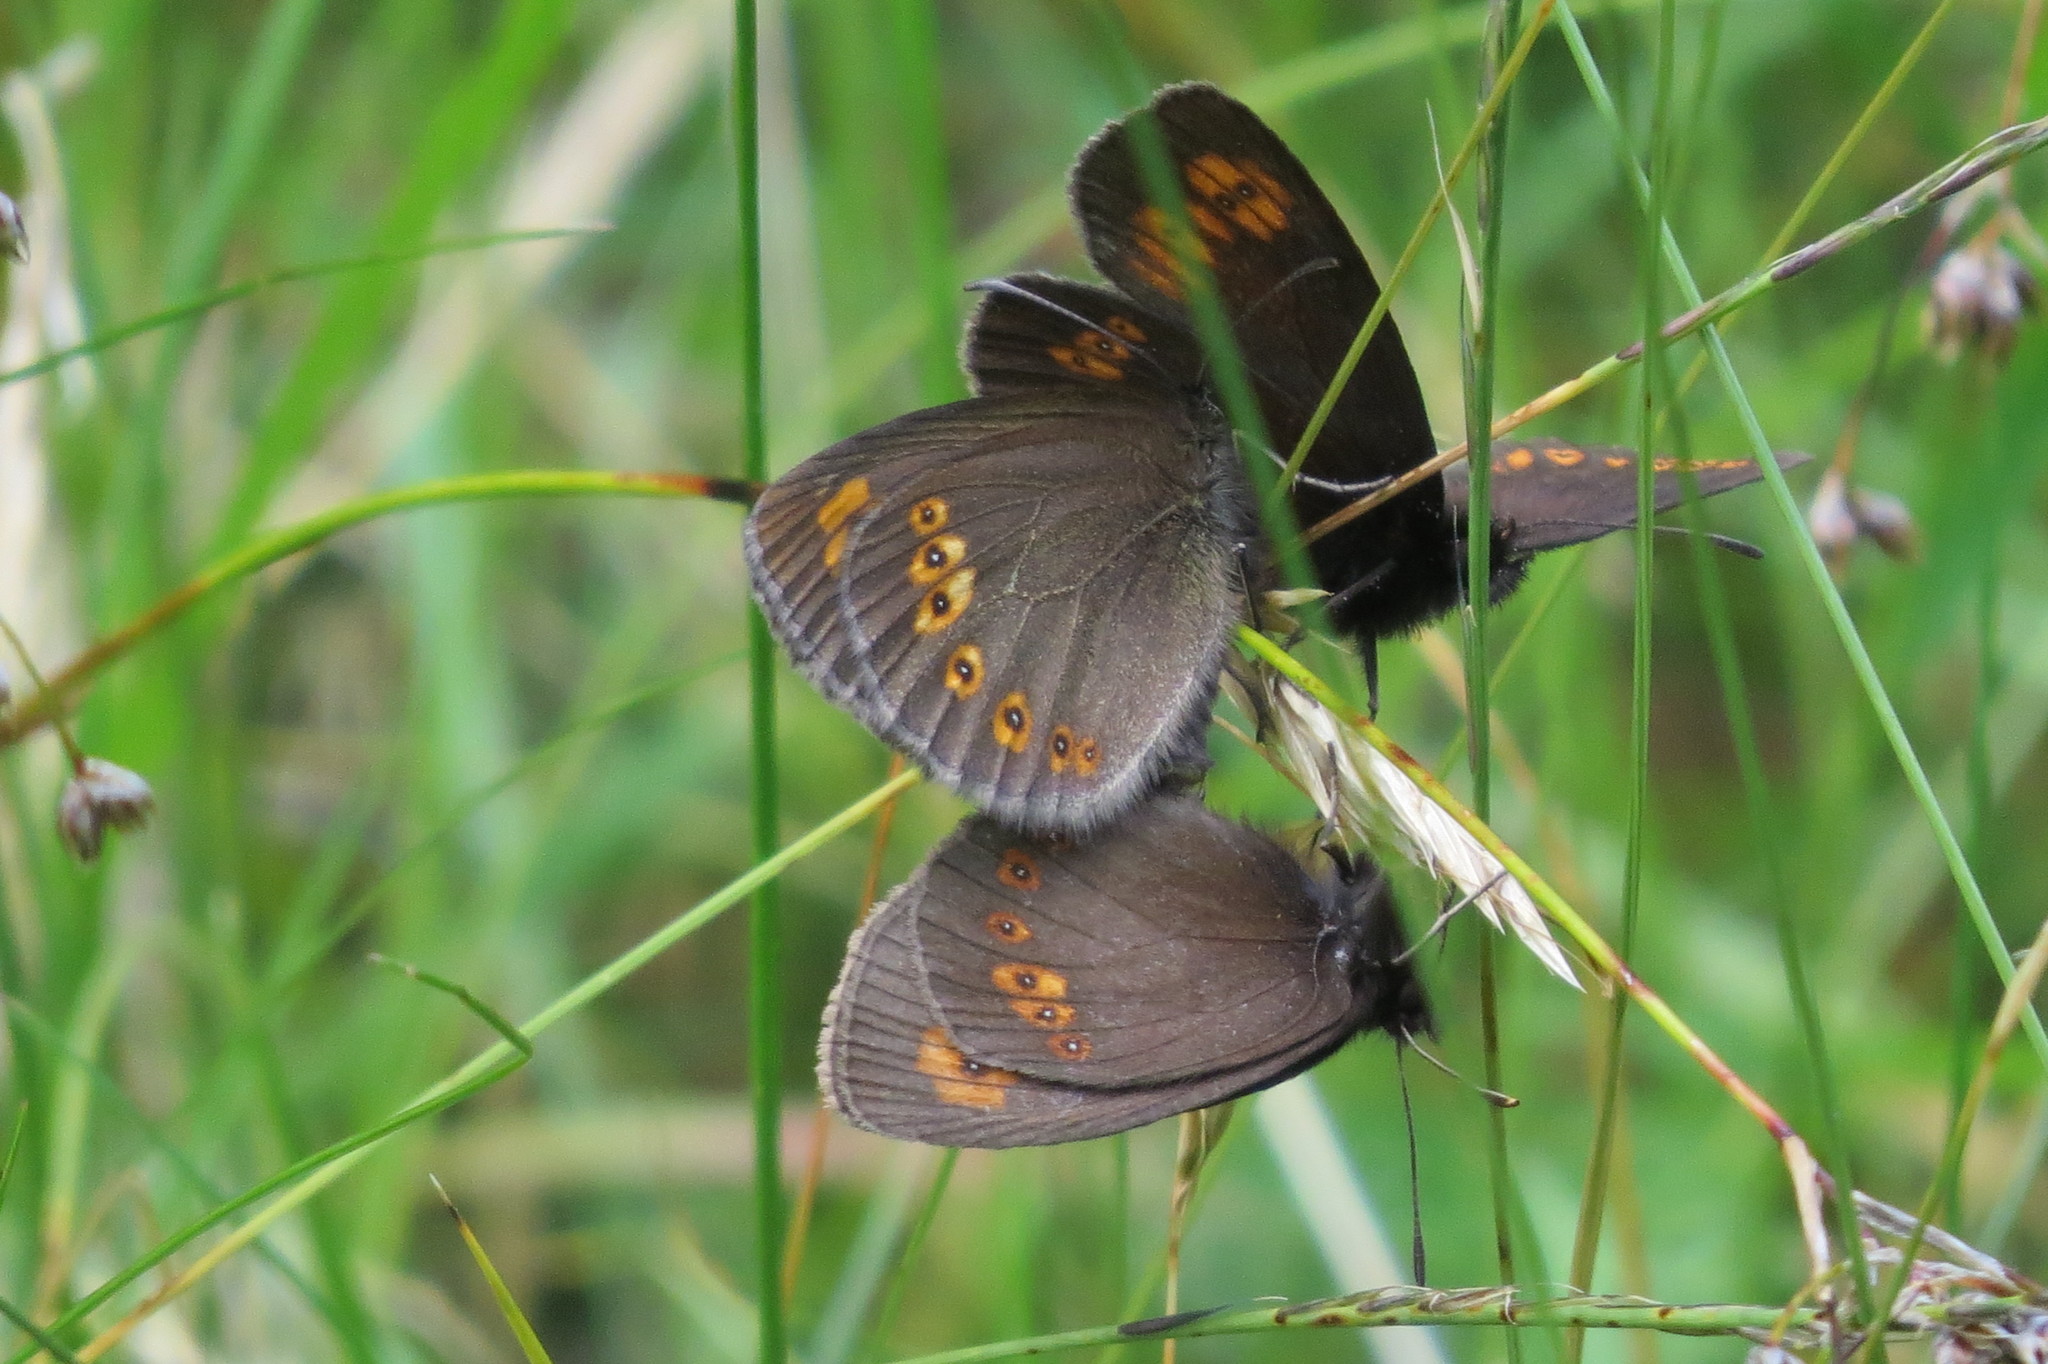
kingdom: Animalia
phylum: Arthropoda
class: Insecta
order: Lepidoptera
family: Nymphalidae
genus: Erebia
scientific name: Erebia alberganus
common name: Almond-eyed ringlet
